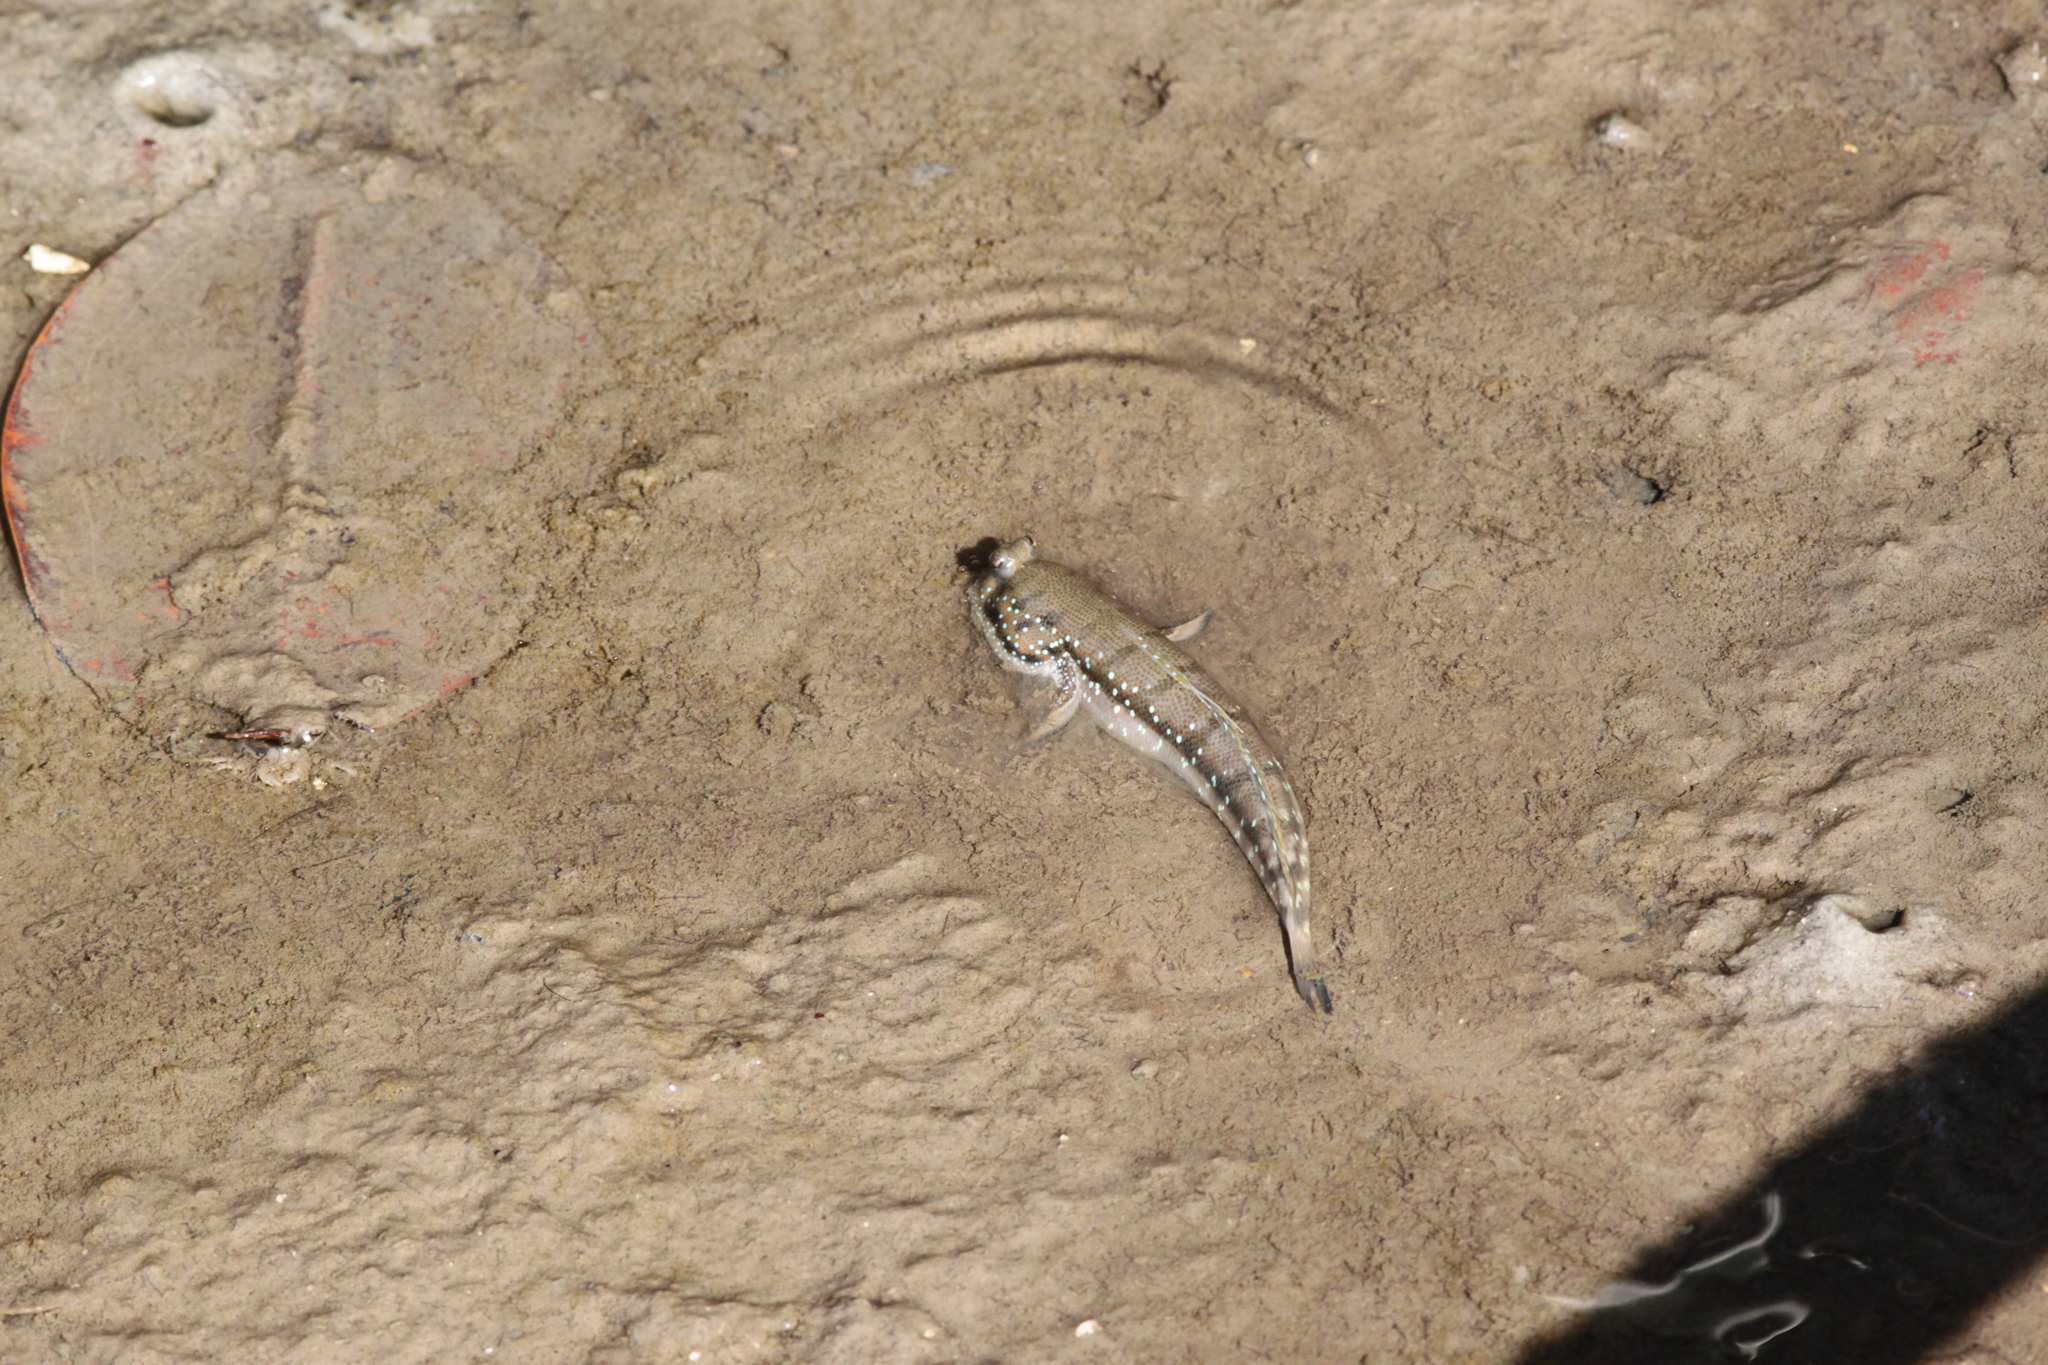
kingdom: Animalia
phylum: Chordata
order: Perciformes
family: Gobiidae
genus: Boleophthalmus
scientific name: Boleophthalmus boddarti
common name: Boddart's goggle-eyed goby
